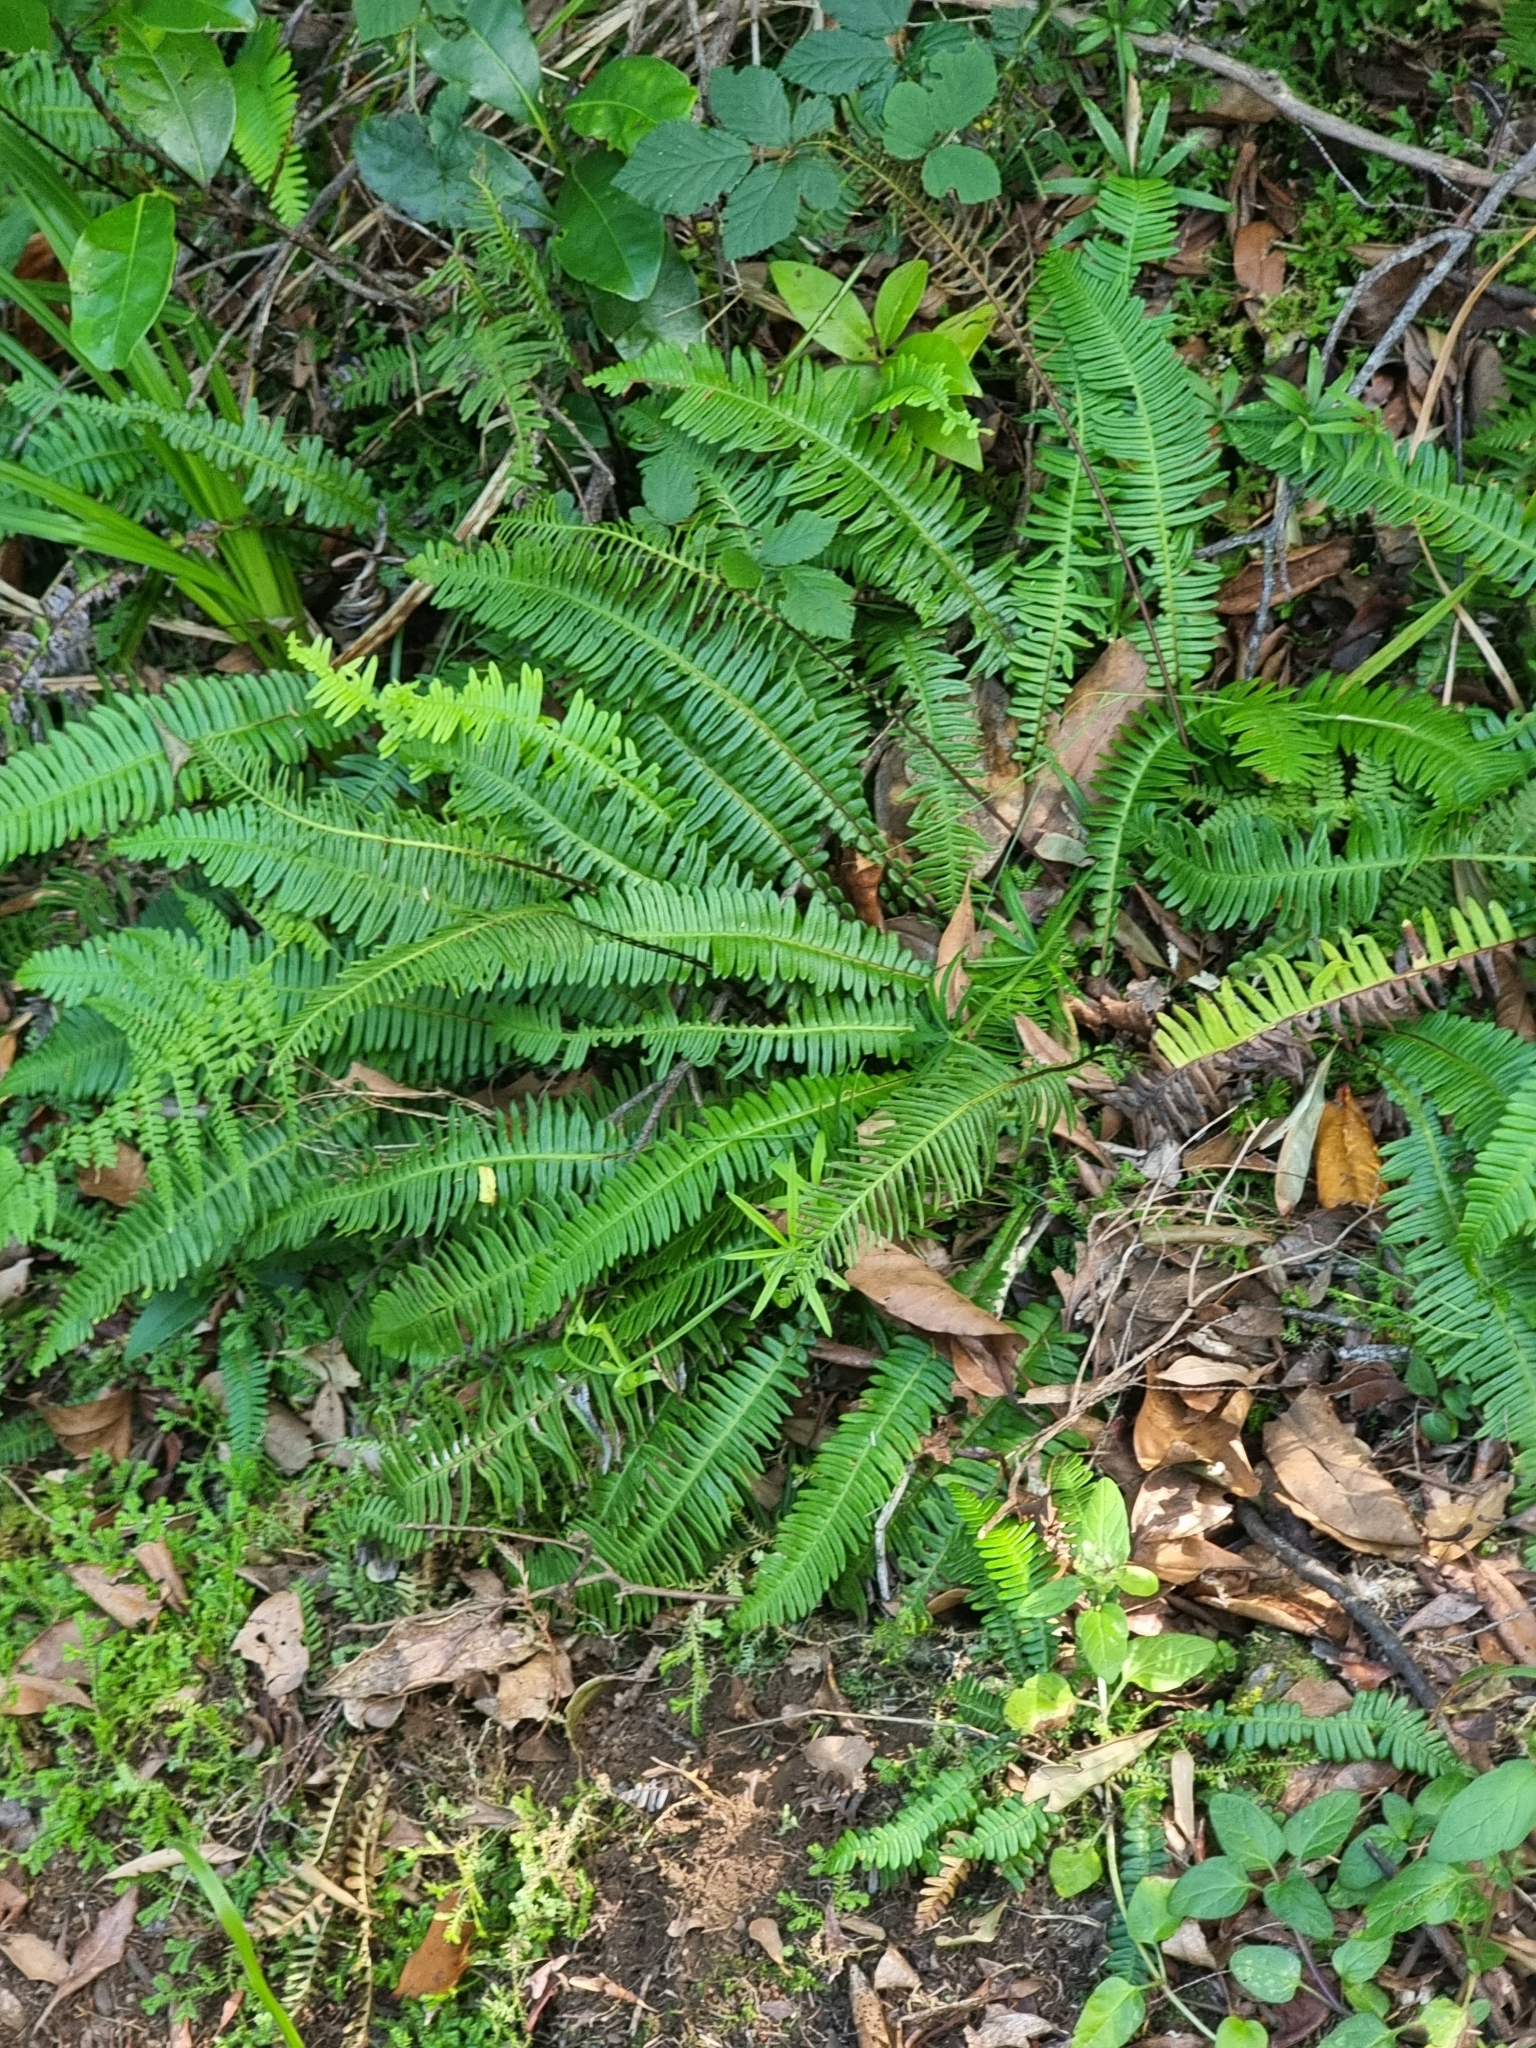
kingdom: Plantae
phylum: Tracheophyta
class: Polypodiopsida
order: Polypodiales
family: Blechnaceae
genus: Struthiopteris
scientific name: Struthiopteris spicant
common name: Deer fern
